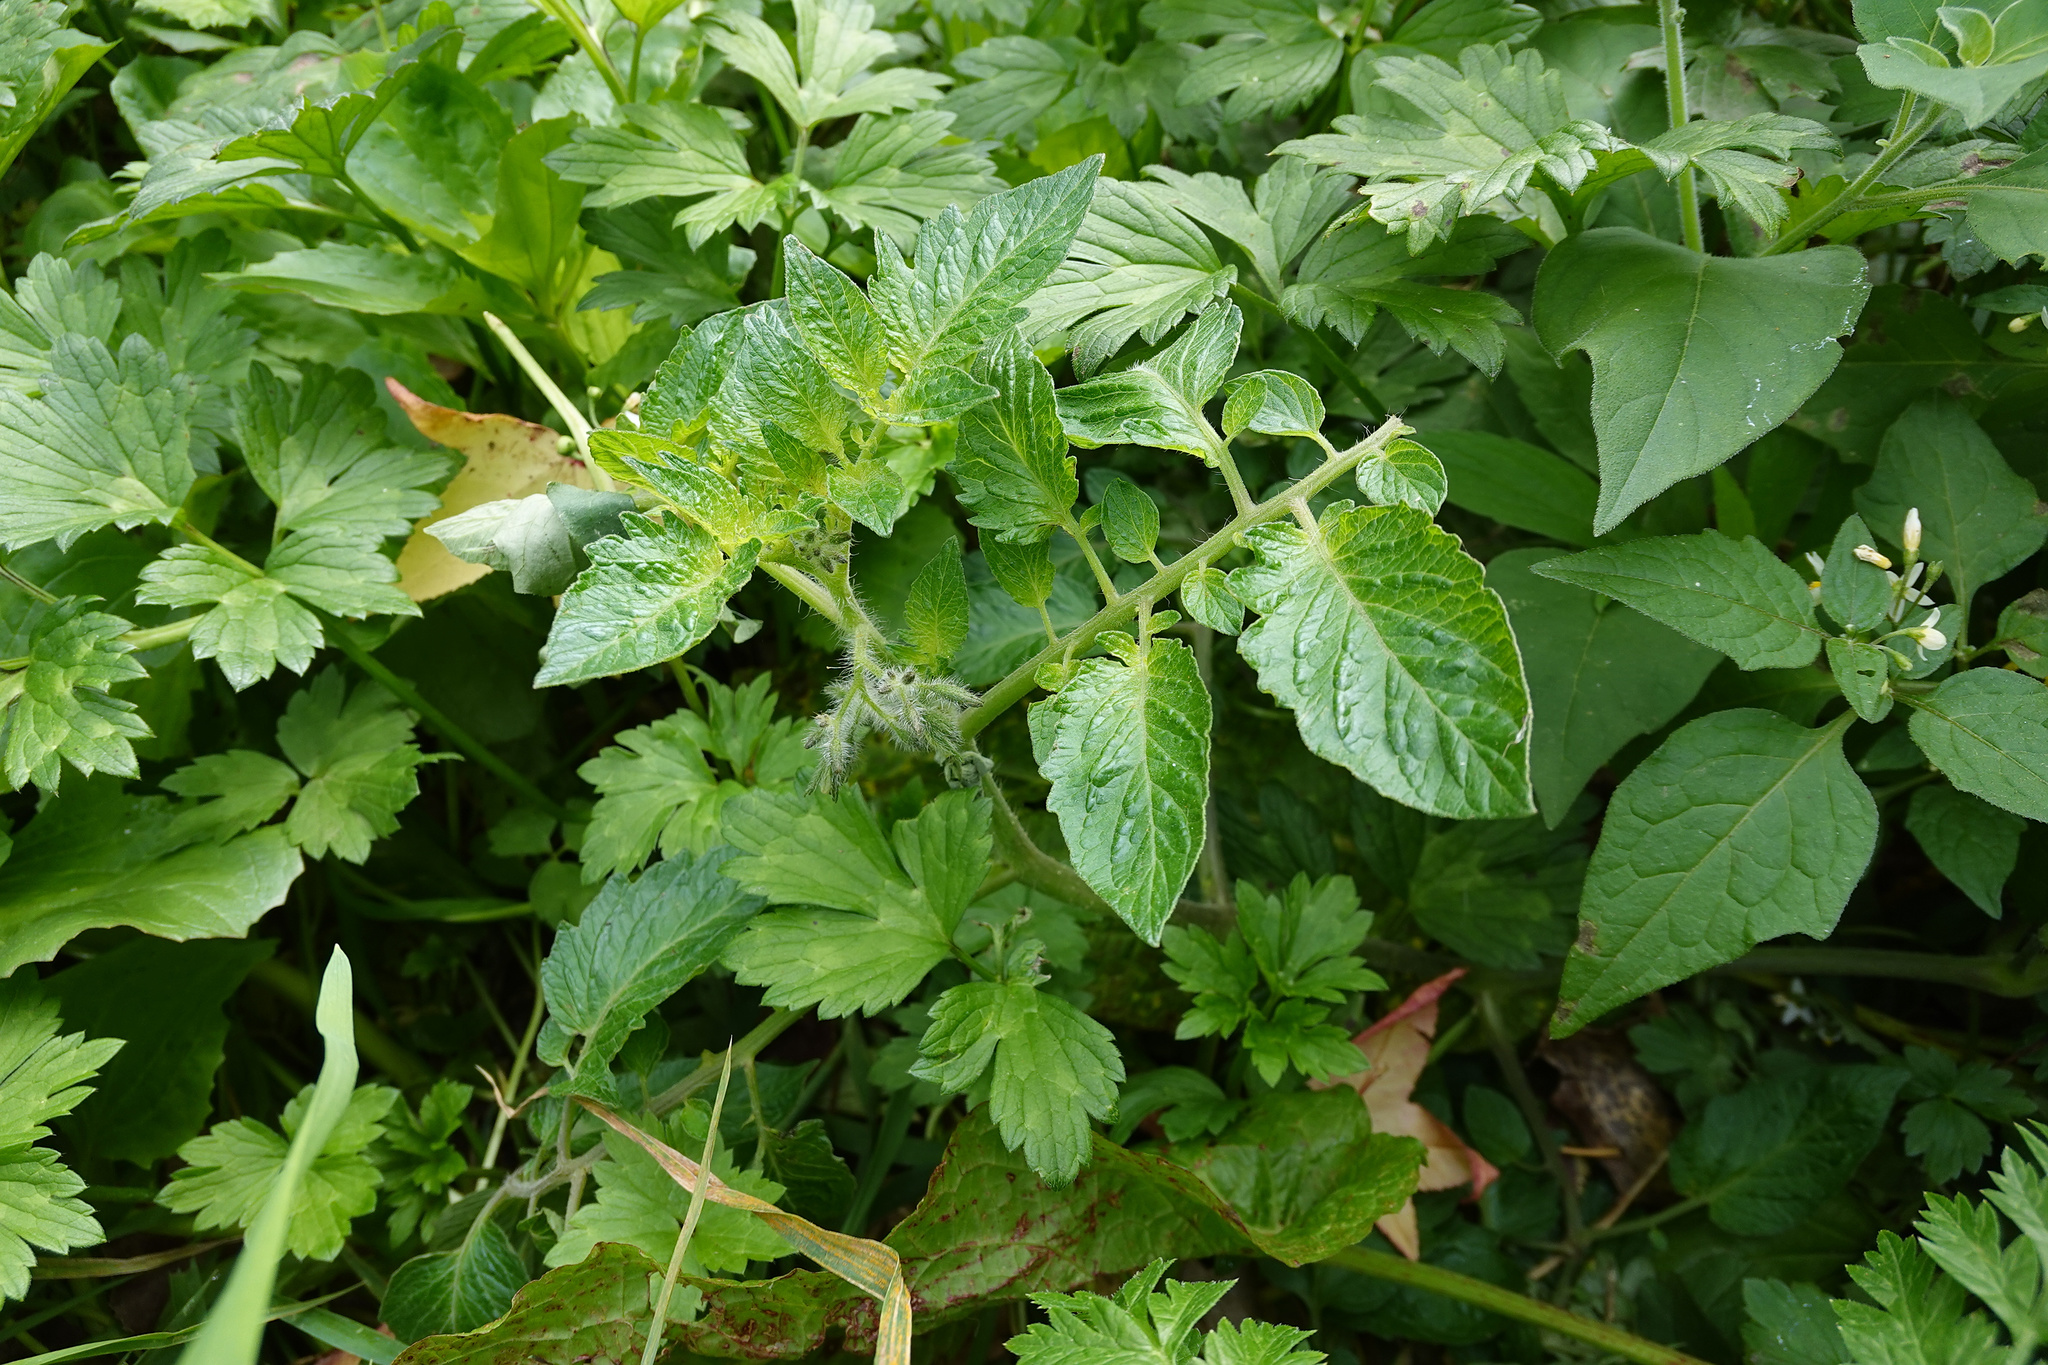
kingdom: Plantae
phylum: Tracheophyta
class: Magnoliopsida
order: Solanales
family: Solanaceae
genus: Solanum
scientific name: Solanum lycopersicum
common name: Garden tomato
